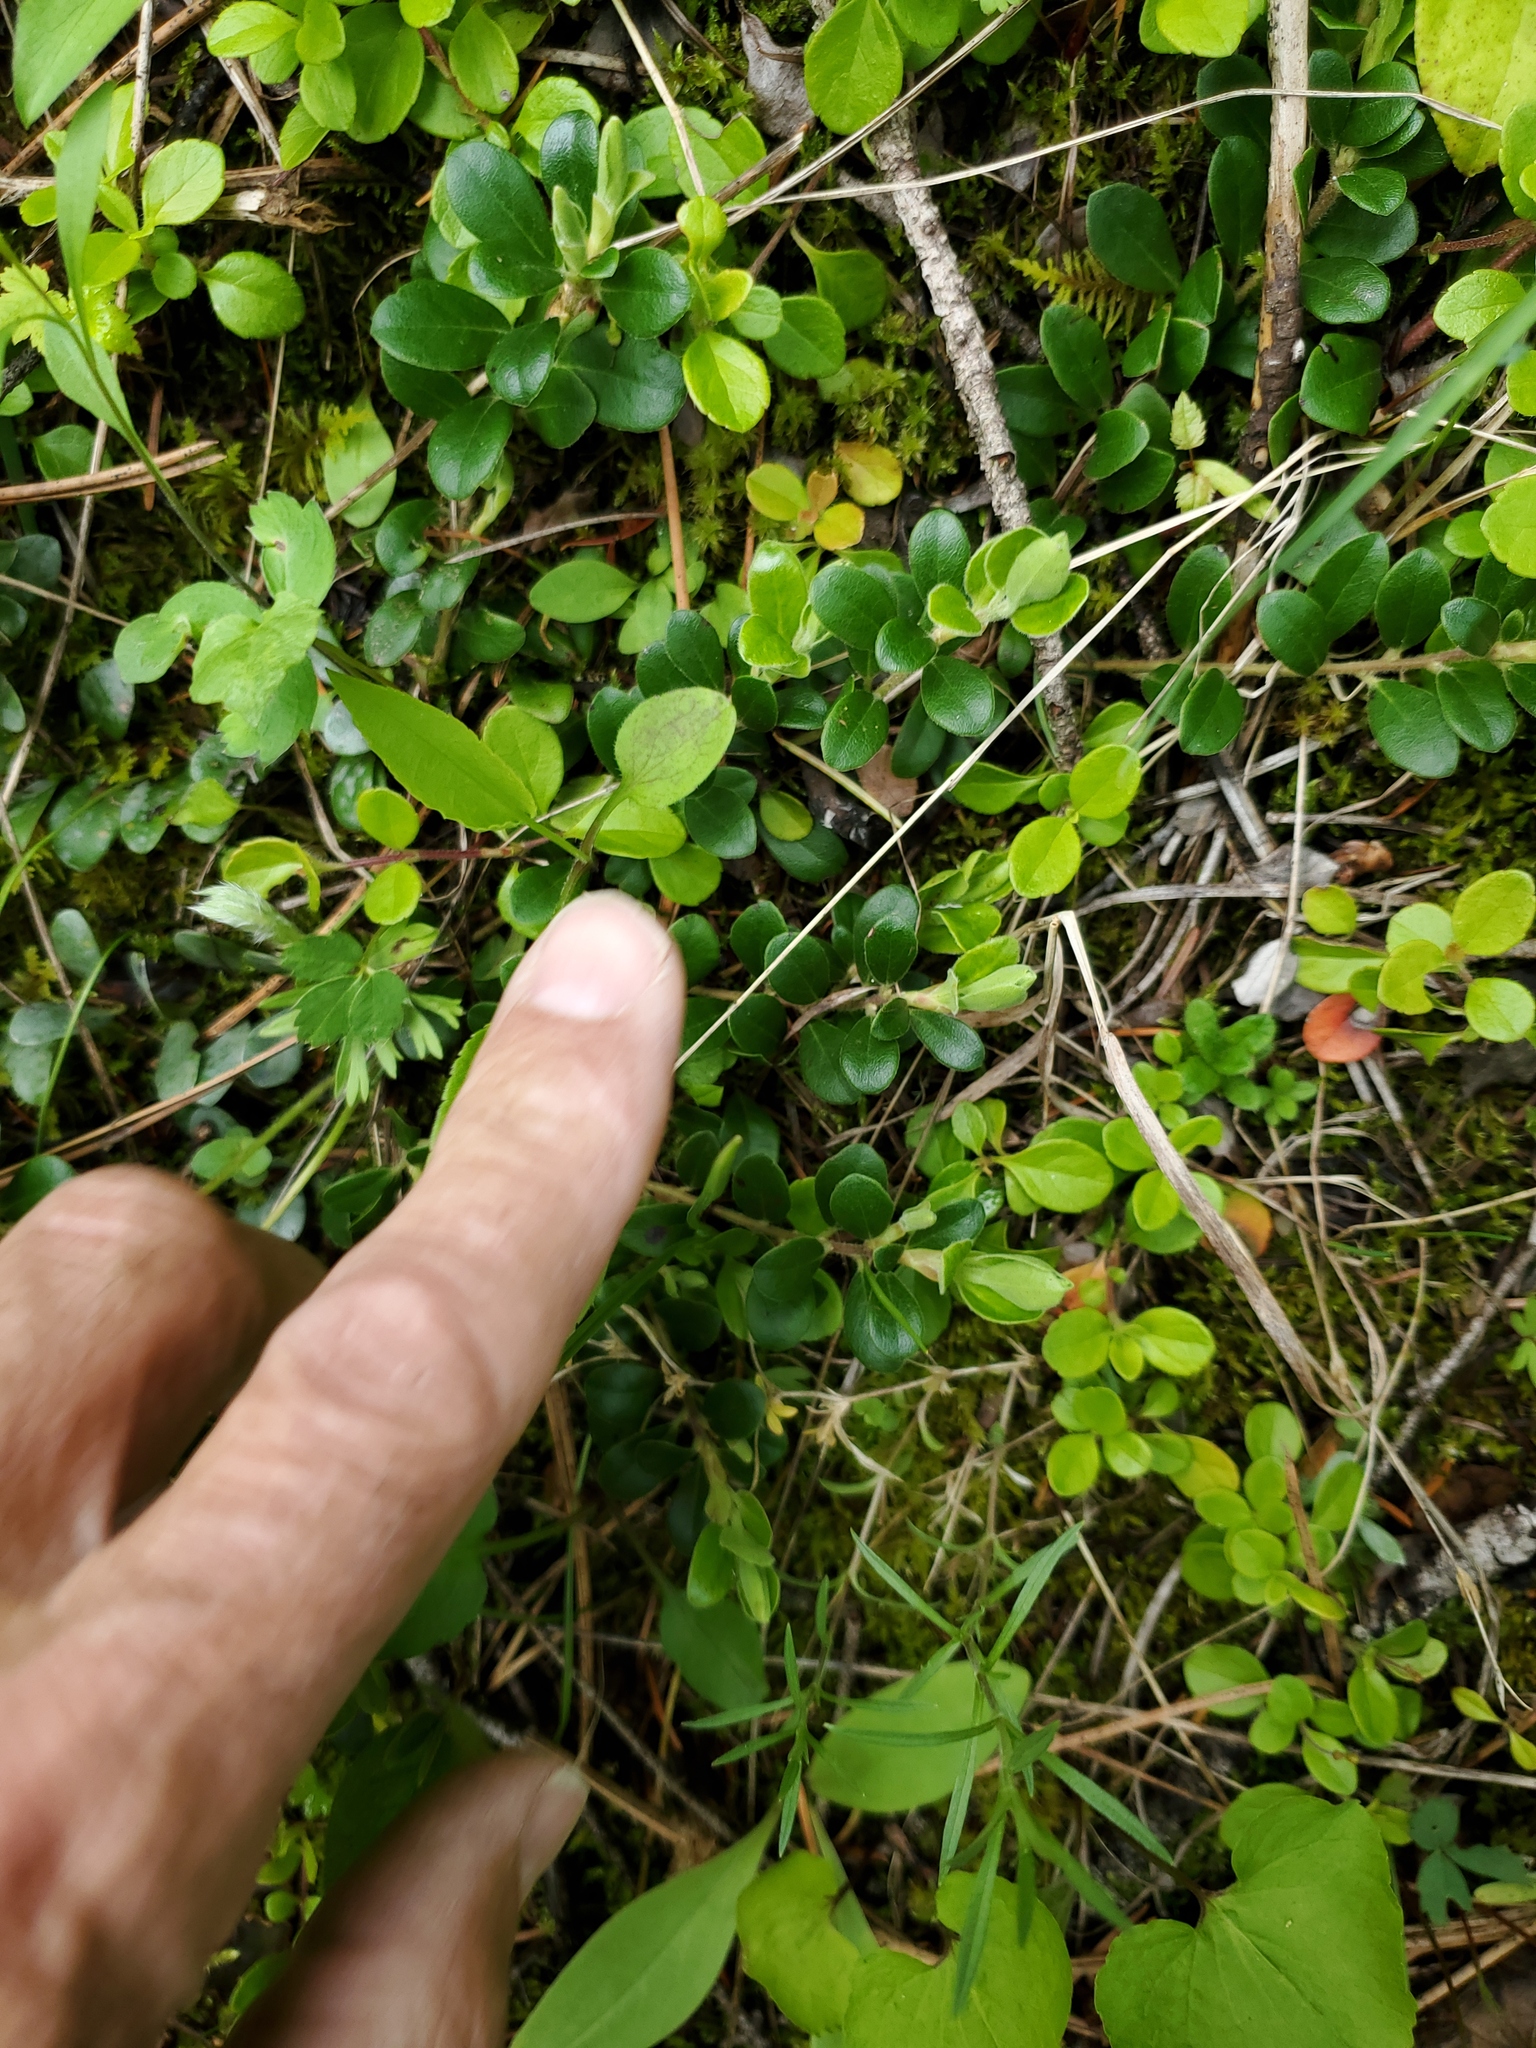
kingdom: Plantae
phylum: Tracheophyta
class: Magnoliopsida
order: Ericales
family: Ericaceae
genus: Arctostaphylos
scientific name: Arctostaphylos uva-ursi
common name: Bearberry
